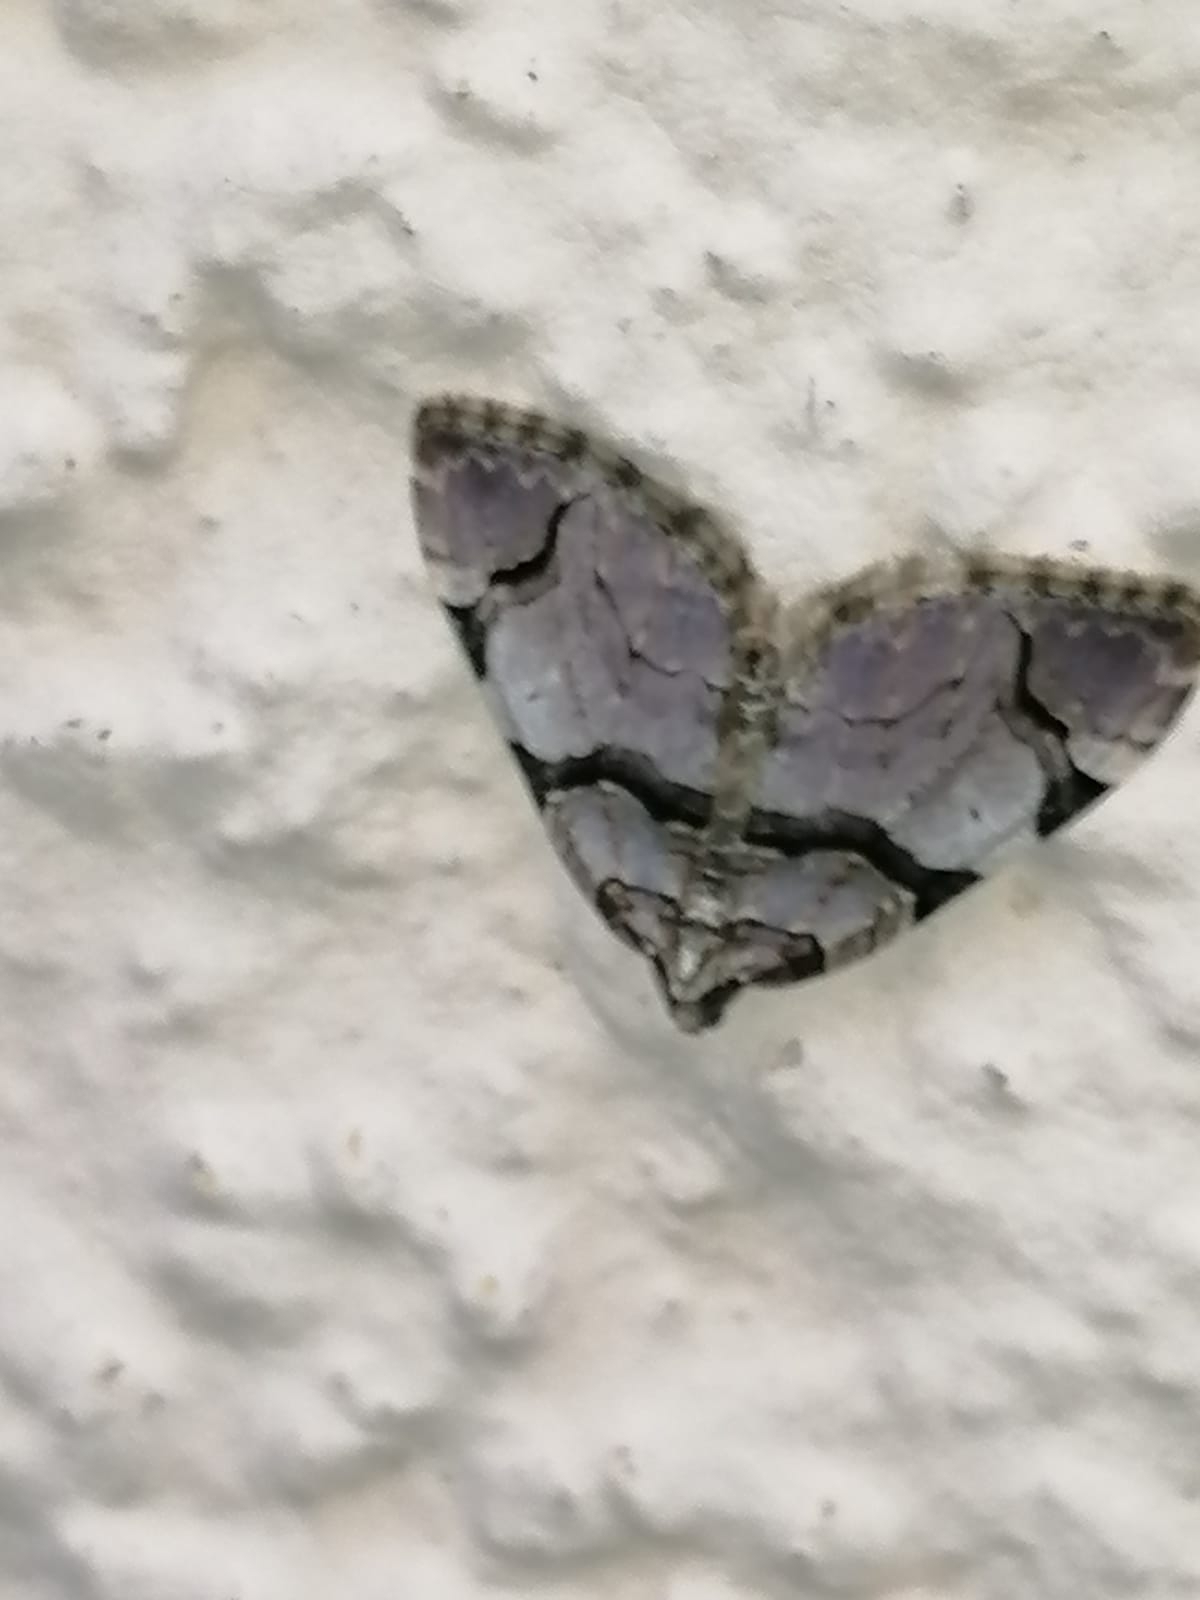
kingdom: Animalia
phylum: Arthropoda
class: Insecta
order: Lepidoptera
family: Geometridae
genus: Anticlea
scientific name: Anticlea derivata
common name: Streamer
